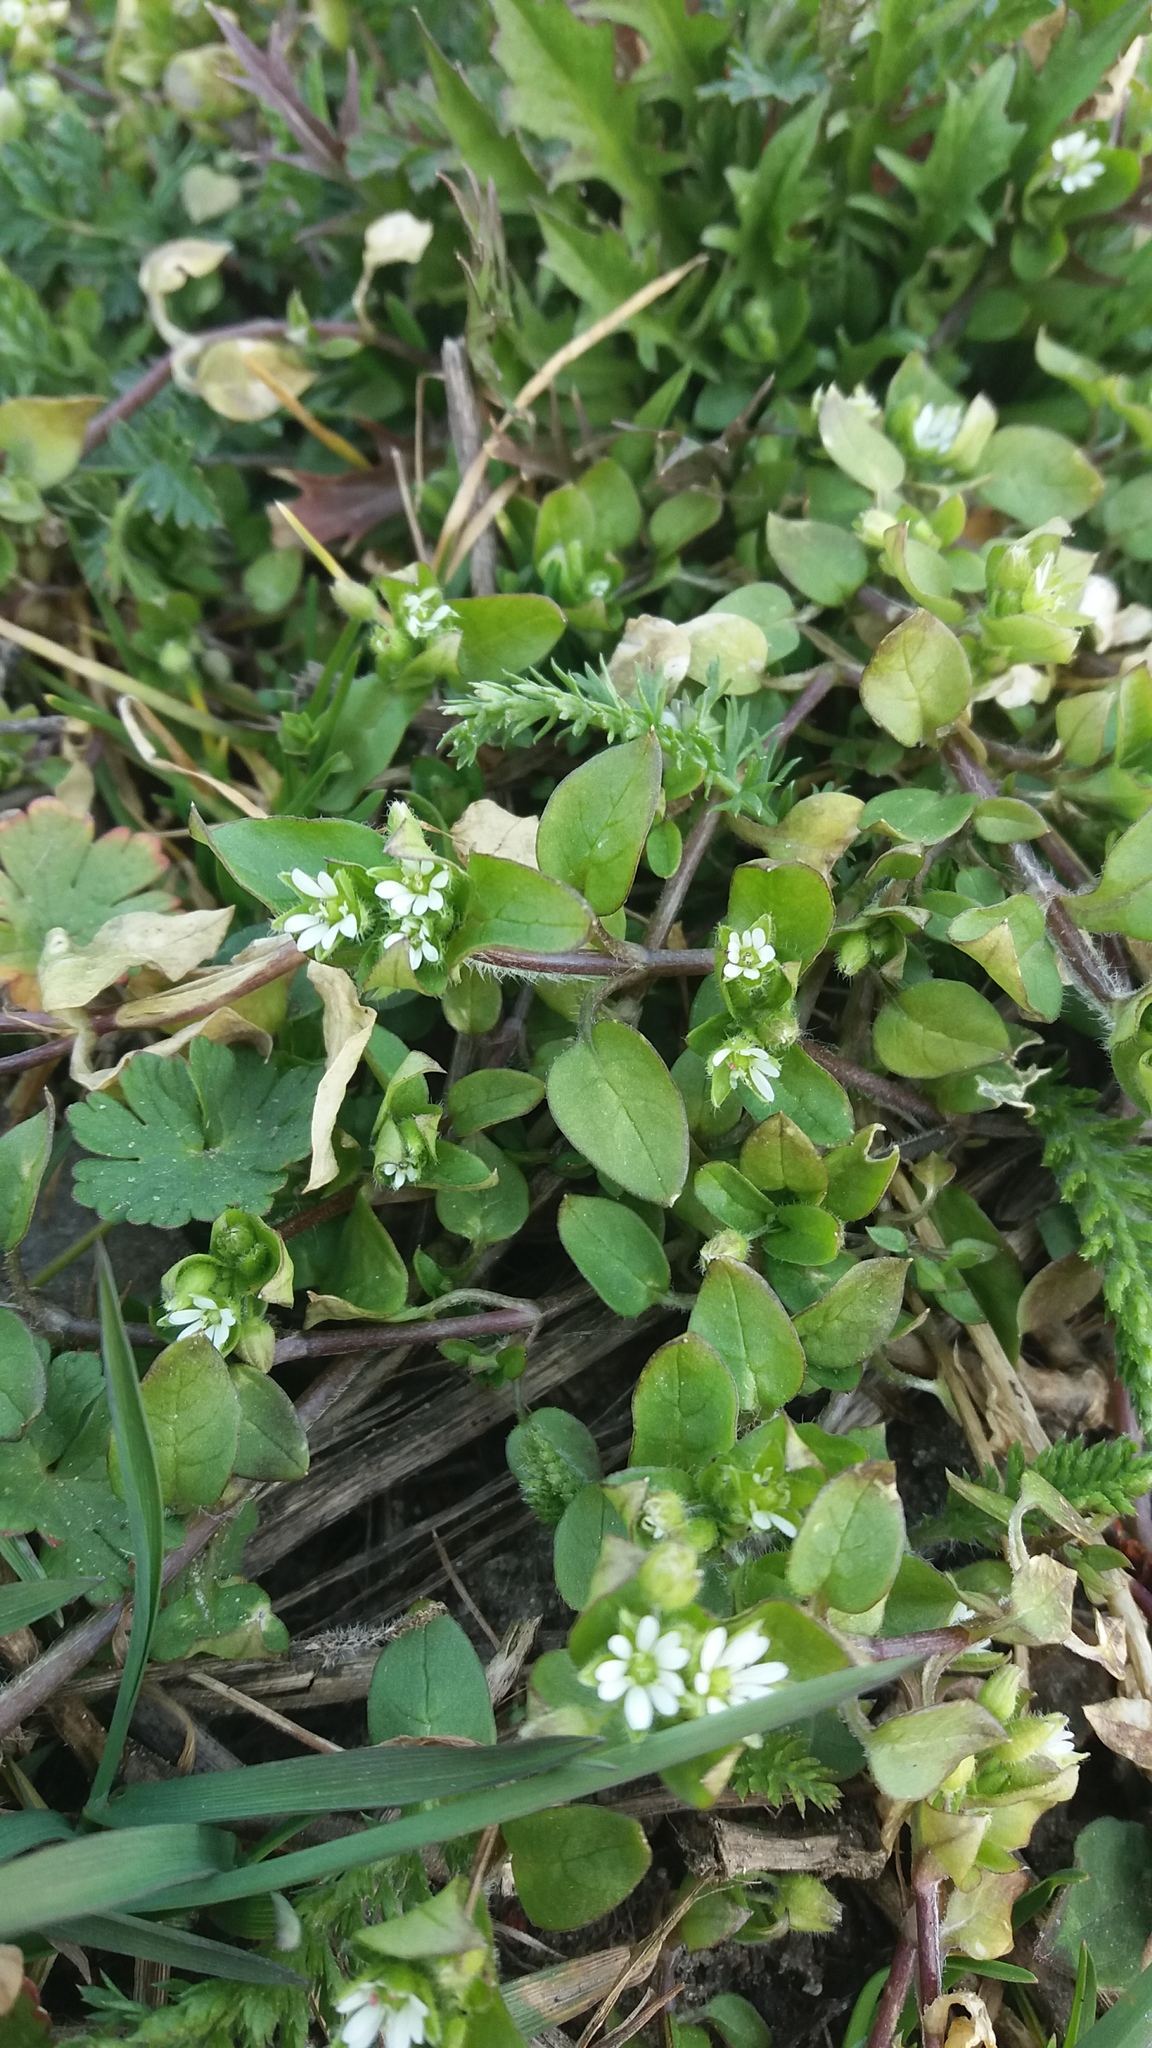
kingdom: Plantae
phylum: Tracheophyta
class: Magnoliopsida
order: Caryophyllales
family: Caryophyllaceae
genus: Stellaria
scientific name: Stellaria media
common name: Common chickweed
